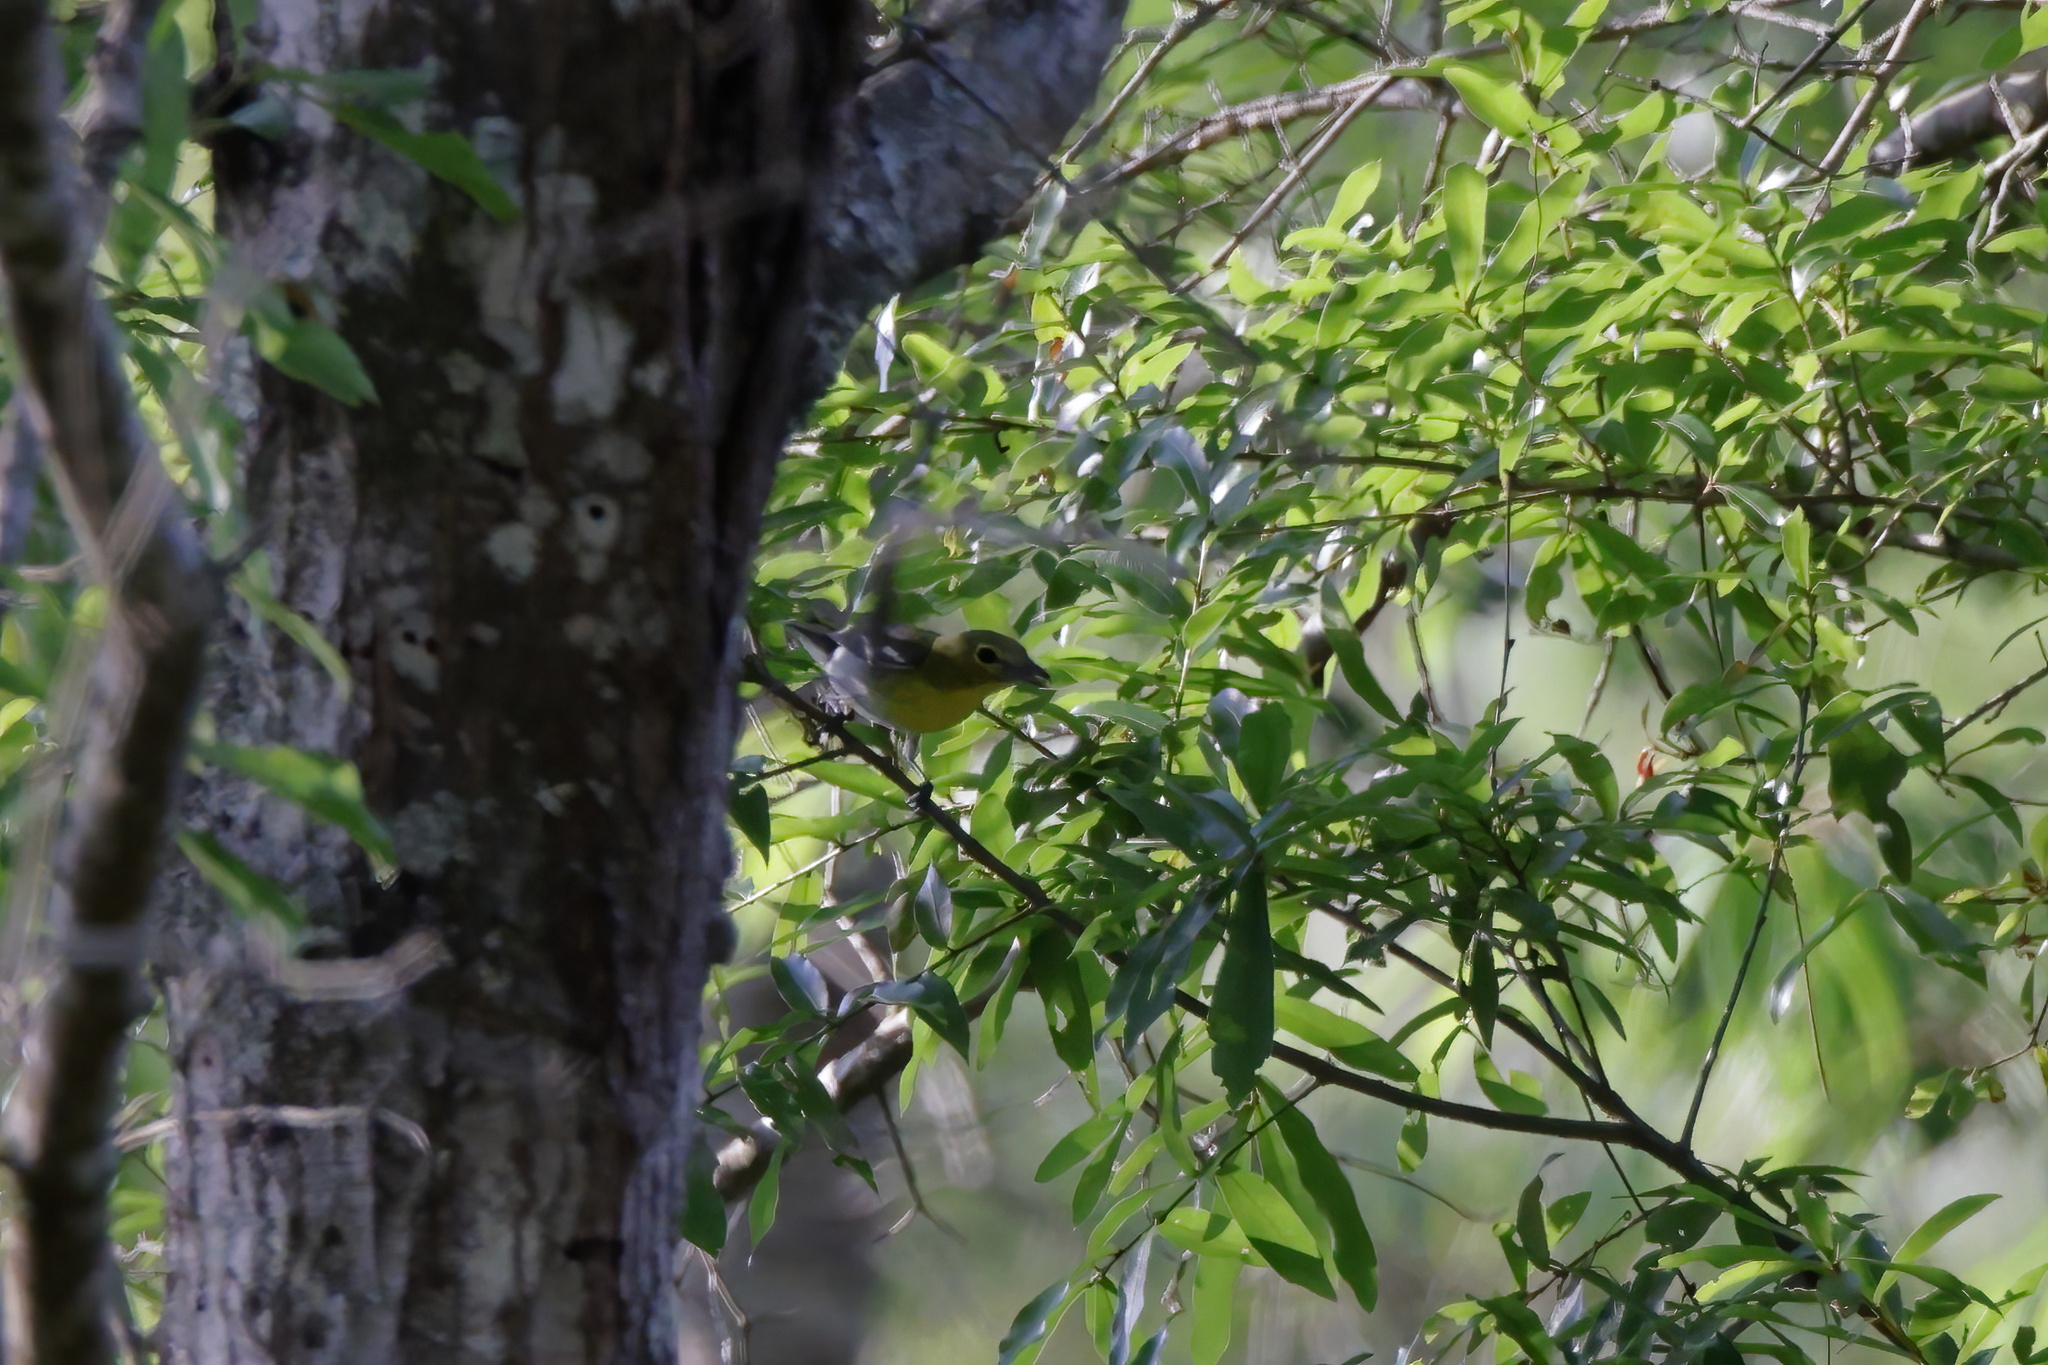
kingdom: Animalia
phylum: Chordata
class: Aves
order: Passeriformes
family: Vireonidae
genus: Vireo
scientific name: Vireo flavifrons
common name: Yellow-throated vireo
